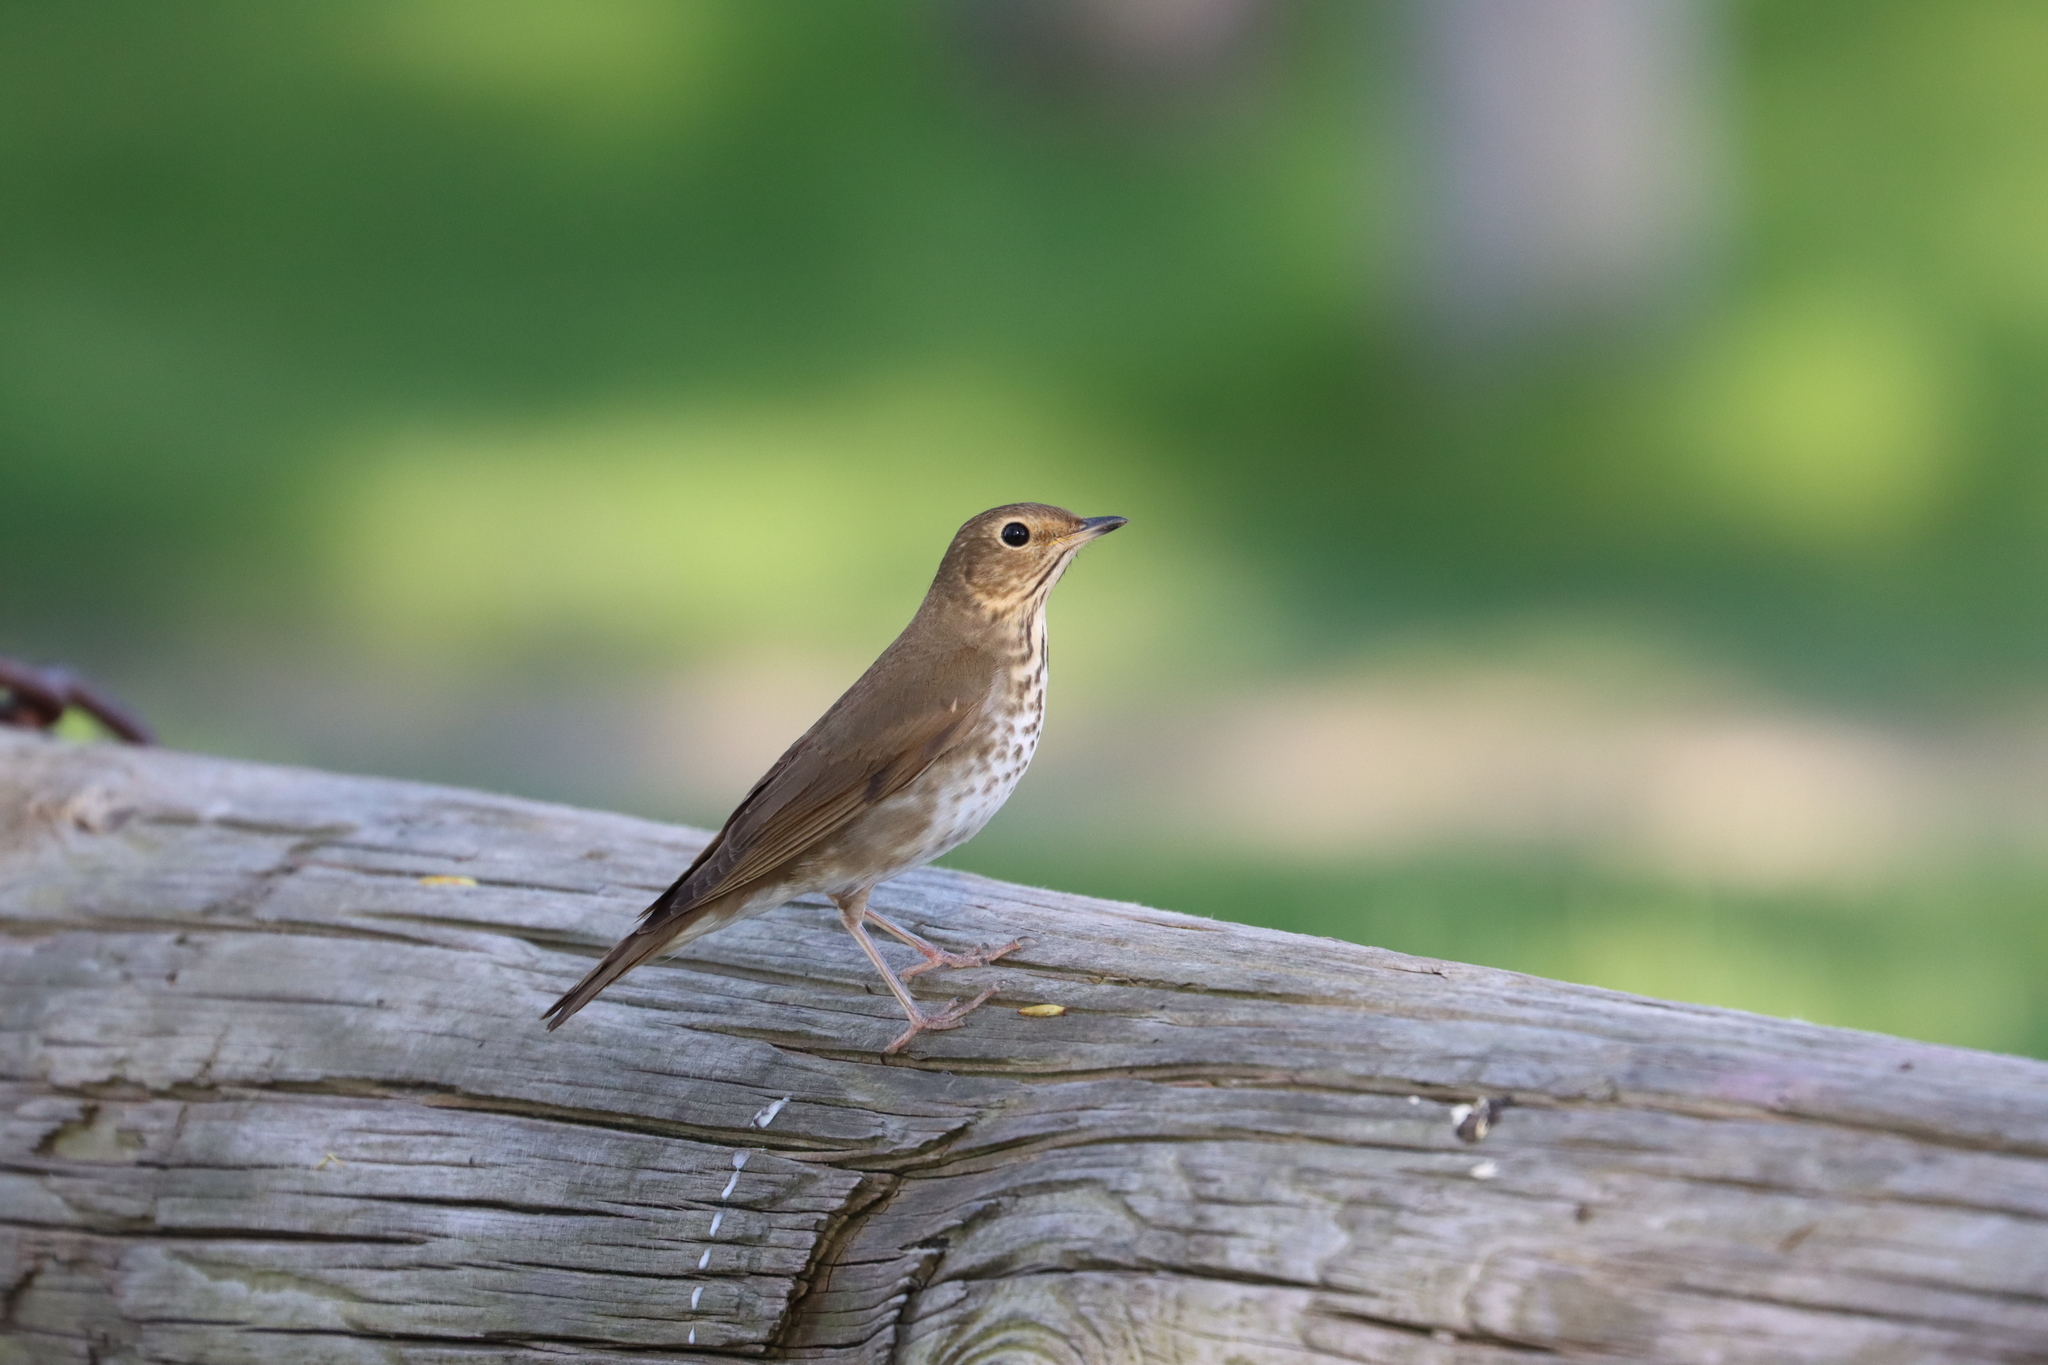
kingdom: Animalia
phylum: Chordata
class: Aves
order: Passeriformes
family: Turdidae
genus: Catharus
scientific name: Catharus ustulatus
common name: Swainson's thrush
